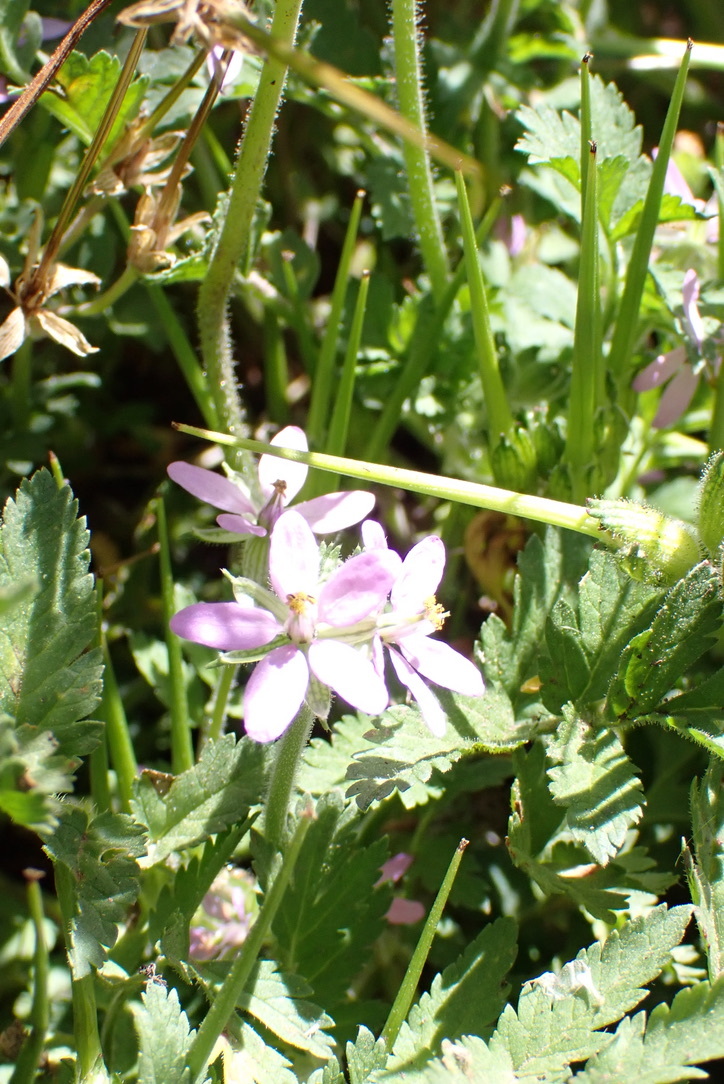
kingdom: Plantae
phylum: Tracheophyta
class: Magnoliopsida
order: Geraniales
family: Geraniaceae
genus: Erodium
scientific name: Erodium moschatum
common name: Musk stork's-bill
